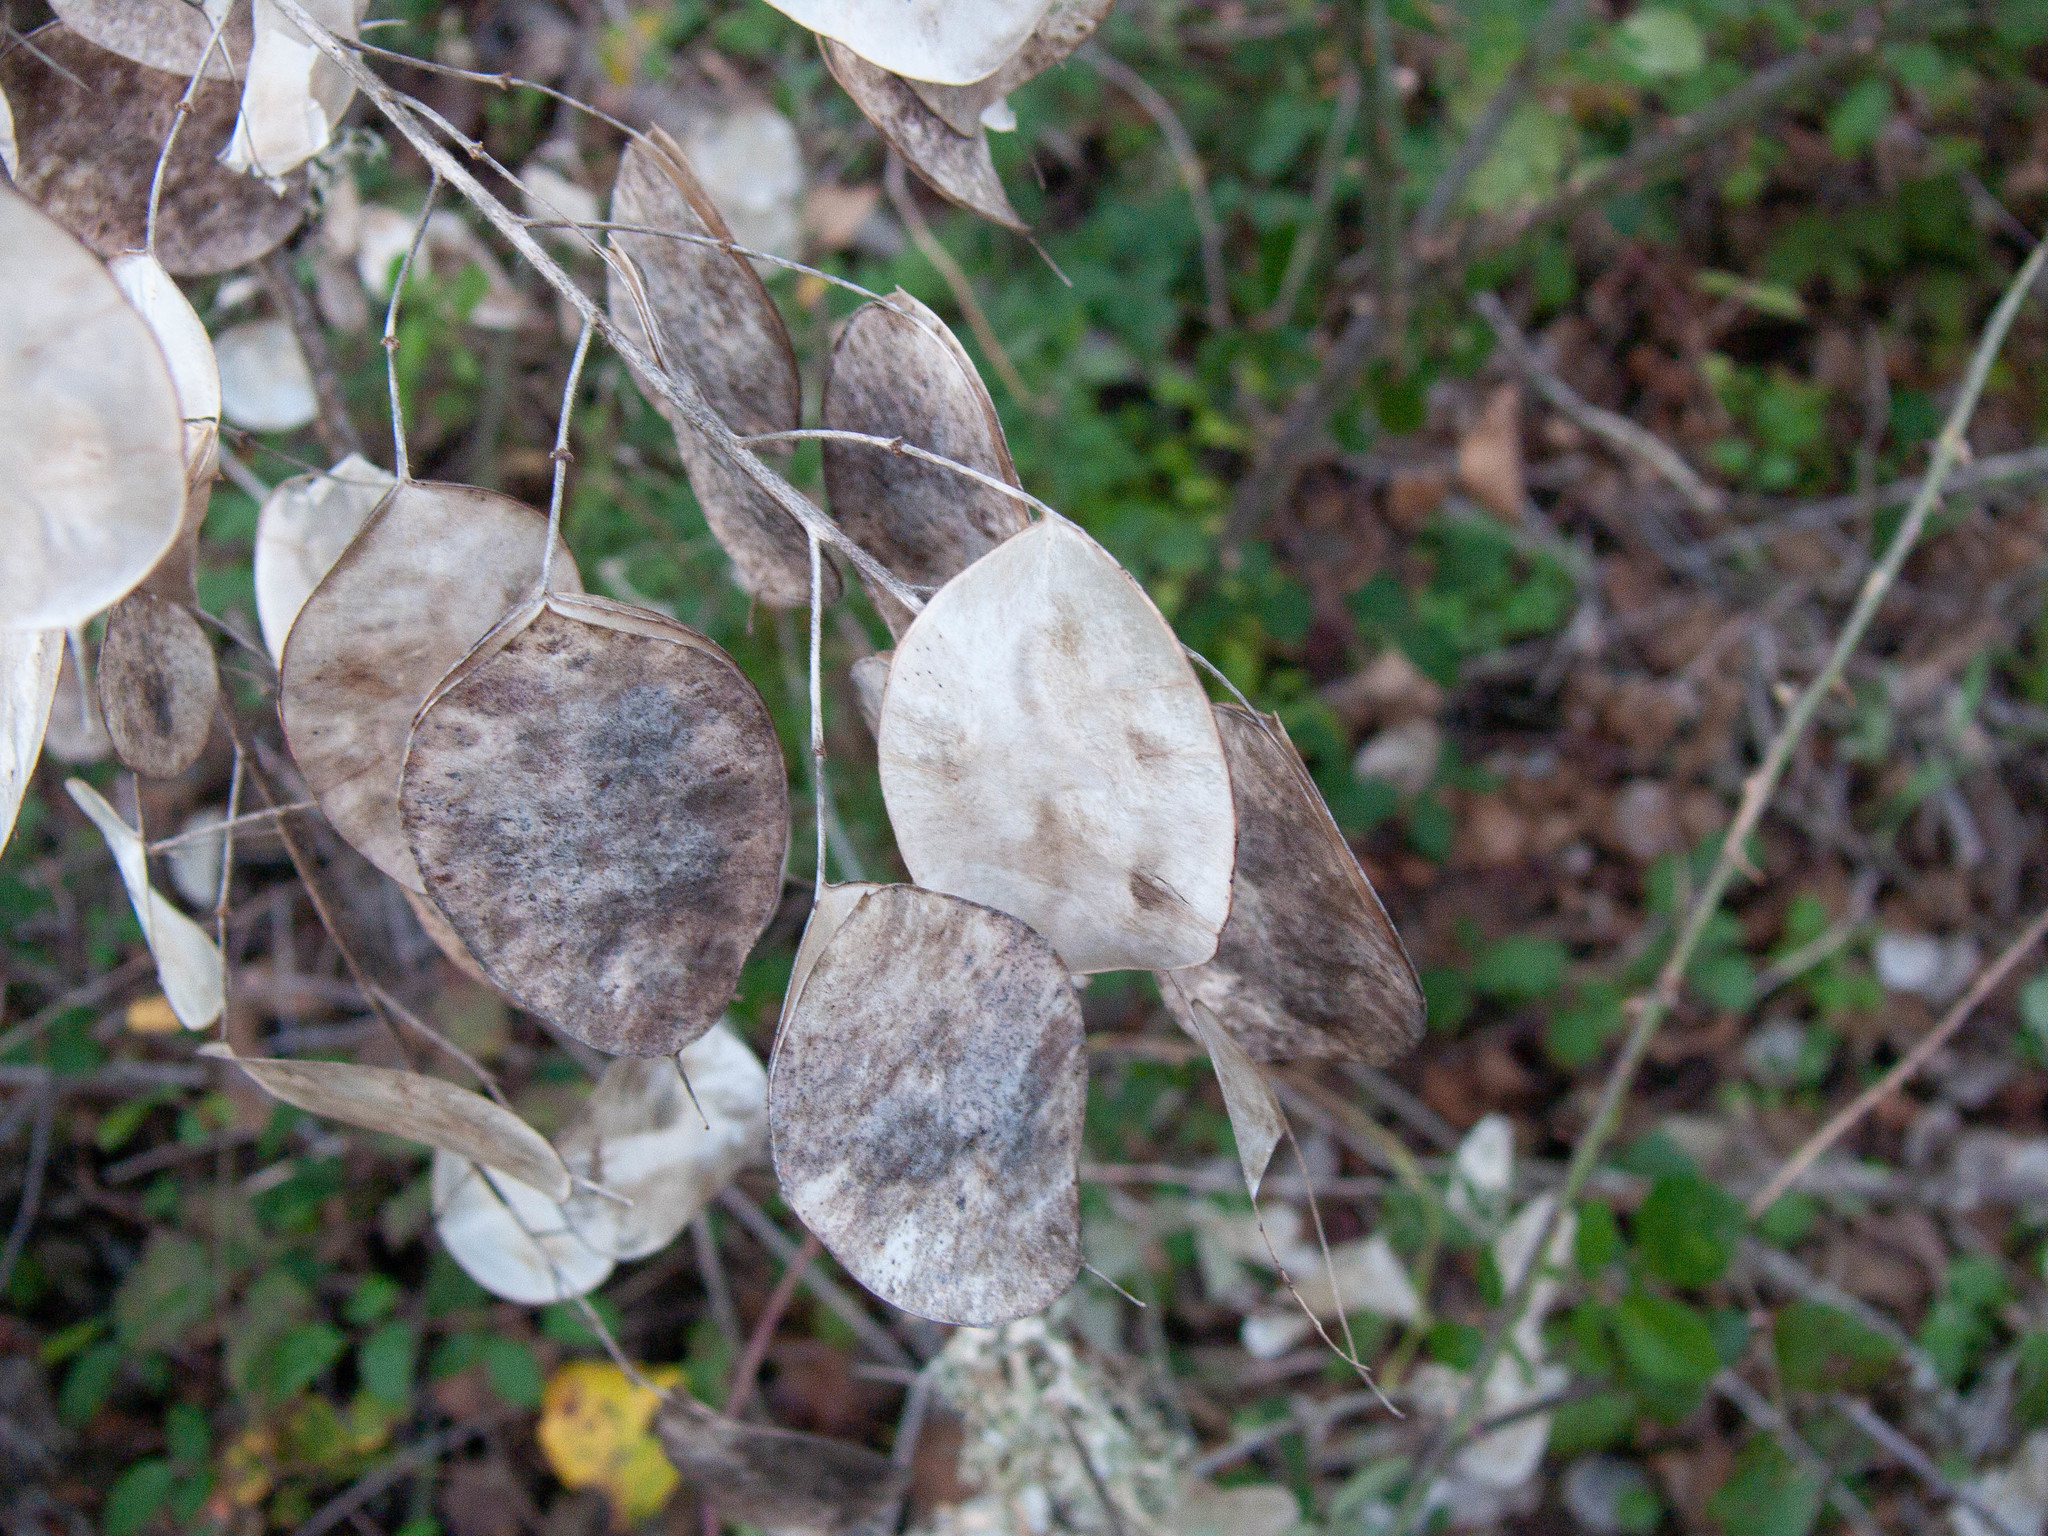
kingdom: Plantae
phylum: Tracheophyta
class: Magnoliopsida
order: Brassicales
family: Brassicaceae
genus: Lunaria
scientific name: Lunaria annua
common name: Honesty
